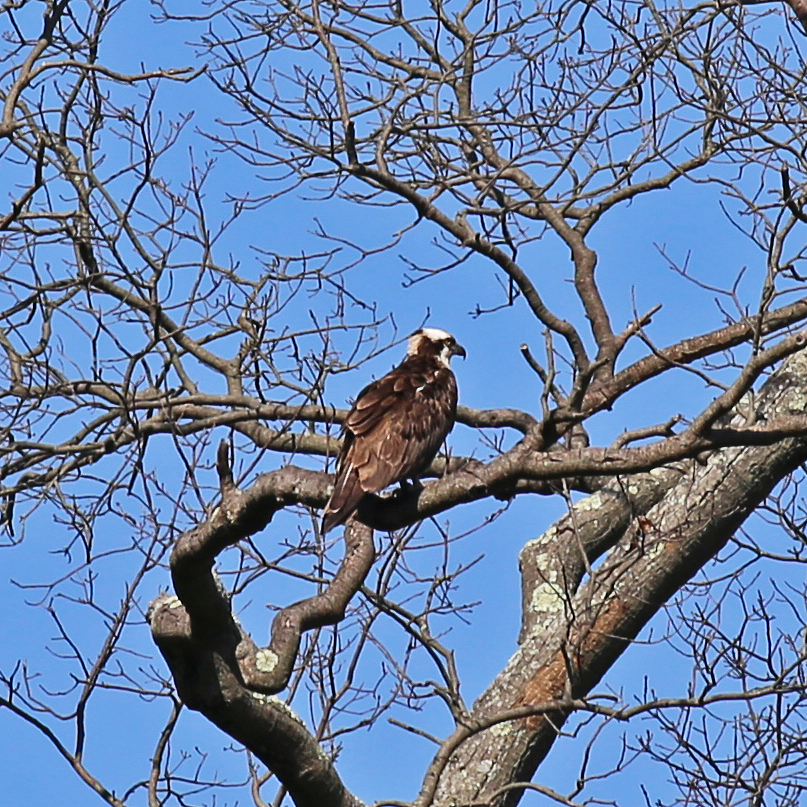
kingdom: Animalia
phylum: Chordata
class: Aves
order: Accipitriformes
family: Pandionidae
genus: Pandion
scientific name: Pandion haliaetus
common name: Osprey
